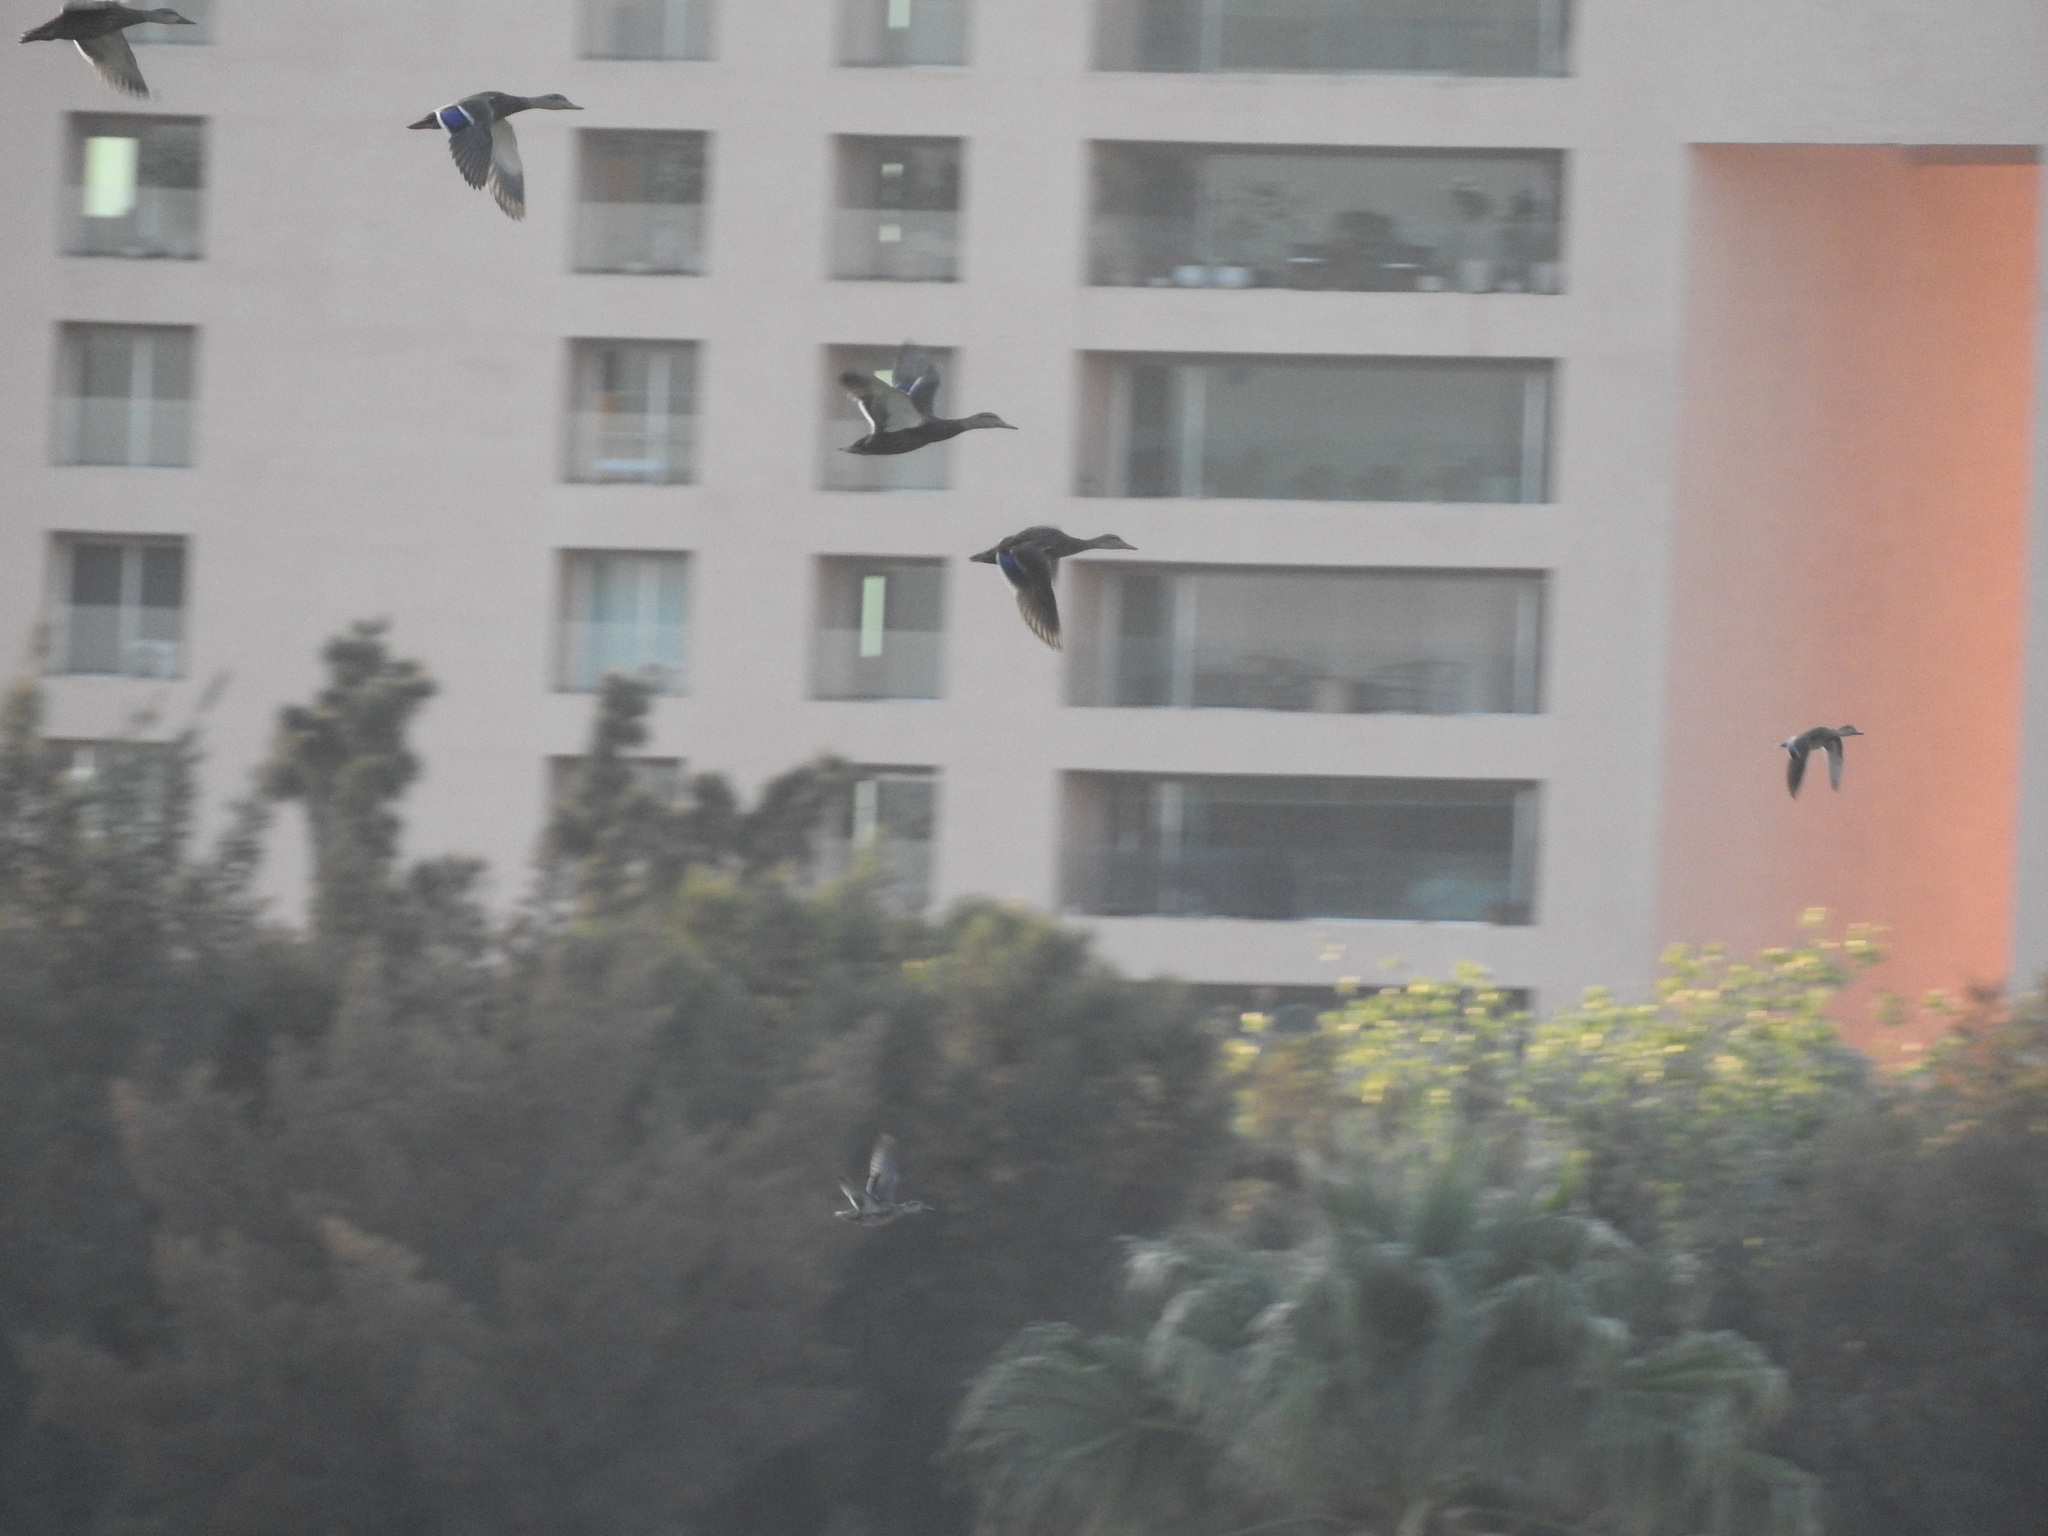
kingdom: Animalia
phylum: Chordata
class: Aves
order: Anseriformes
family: Anatidae
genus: Anas
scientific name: Anas diazi
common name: Mexican duck
